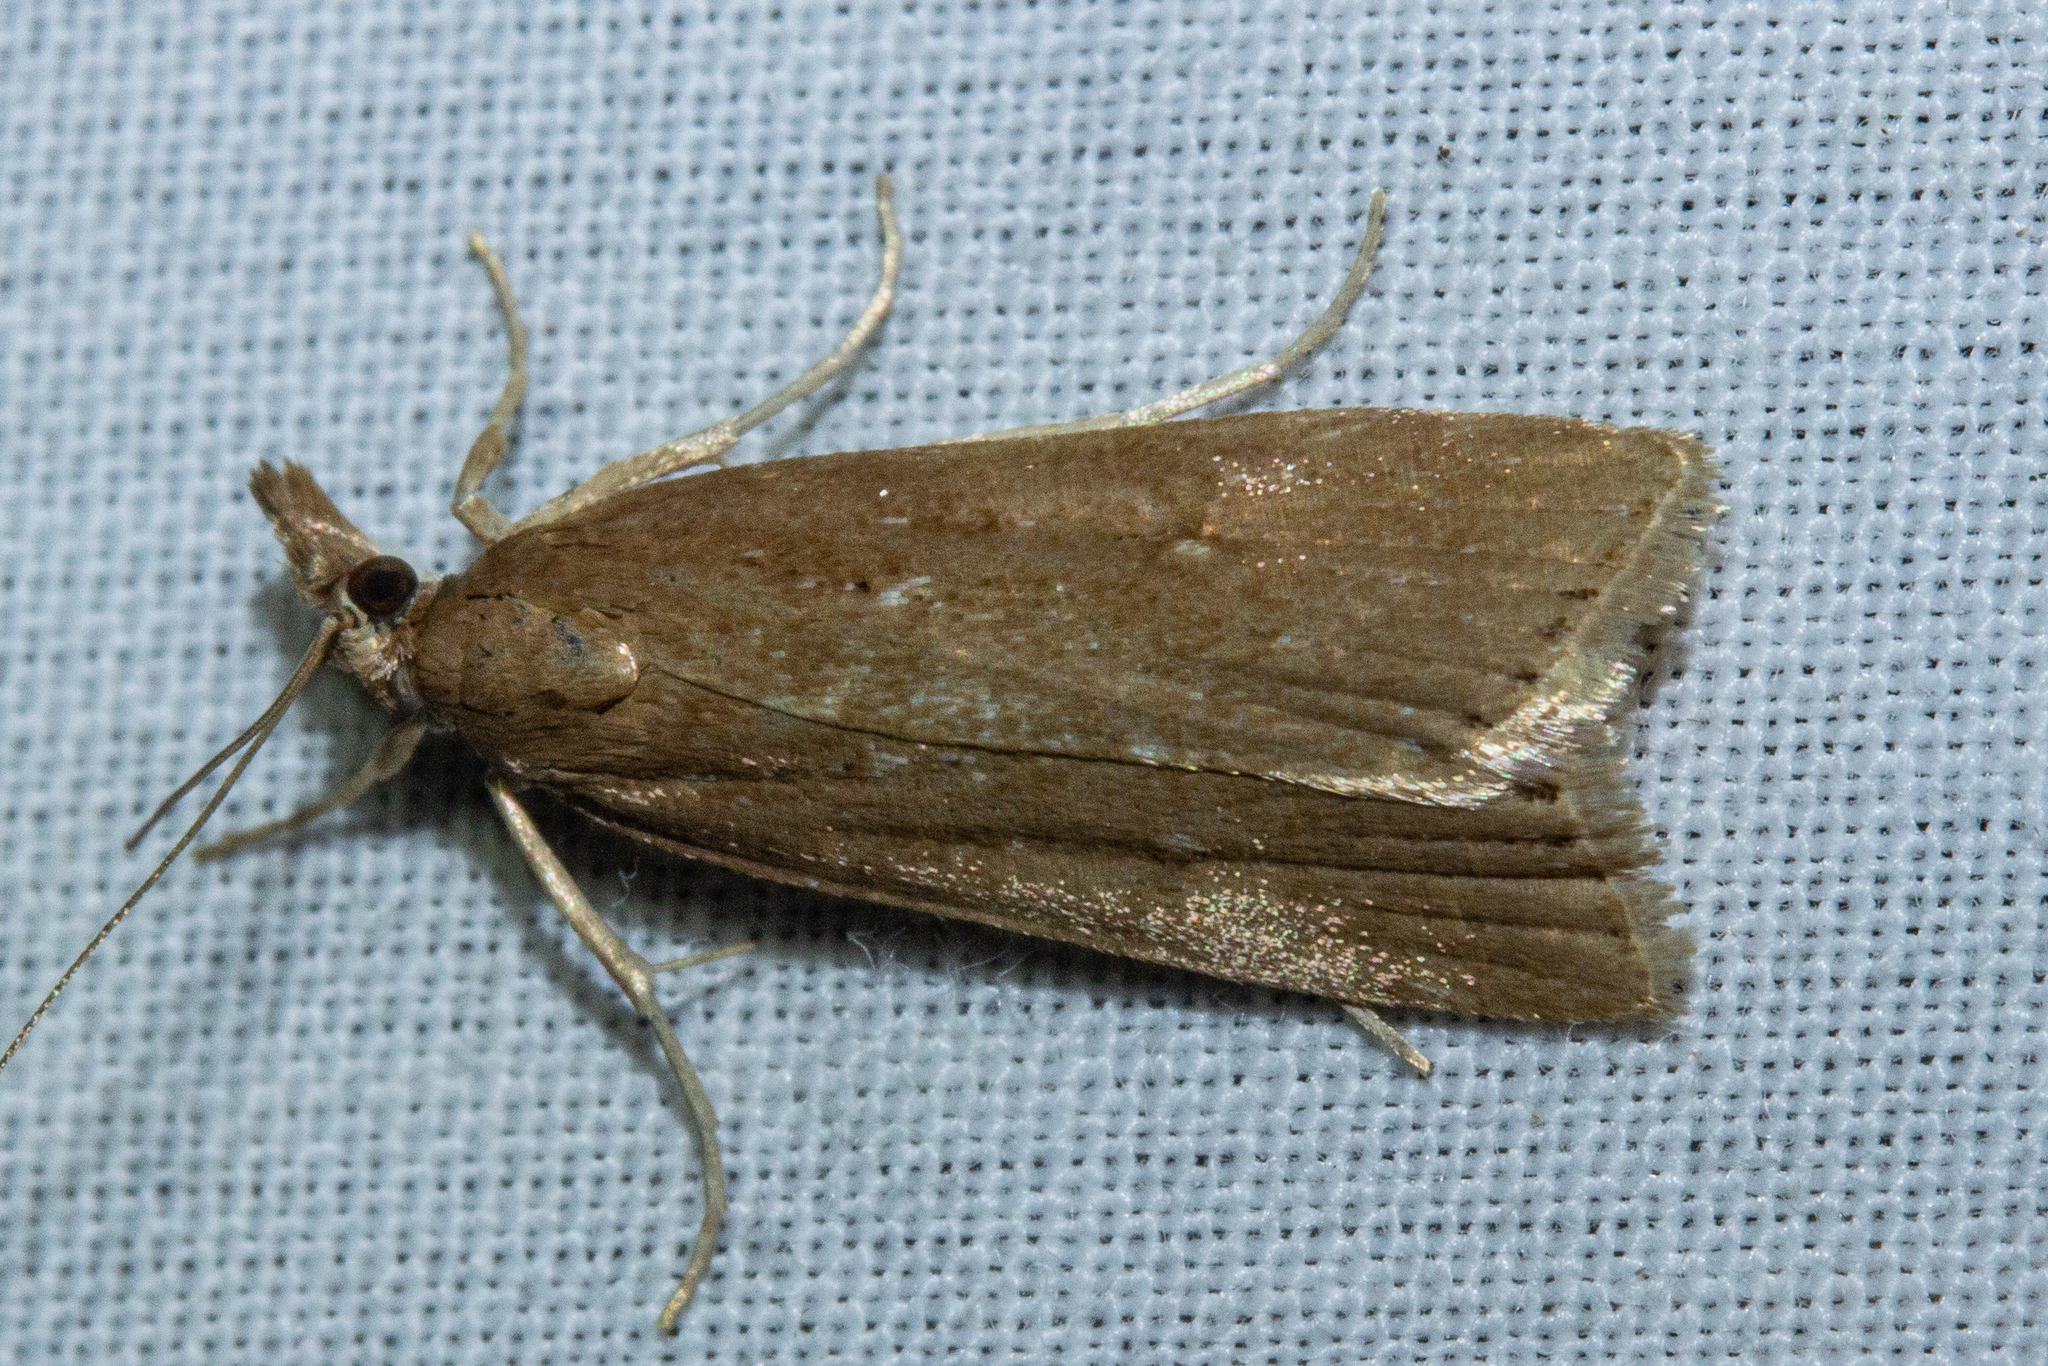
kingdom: Animalia
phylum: Arthropoda
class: Insecta
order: Lepidoptera
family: Crambidae
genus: Eudonia
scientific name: Eudonia octophora
